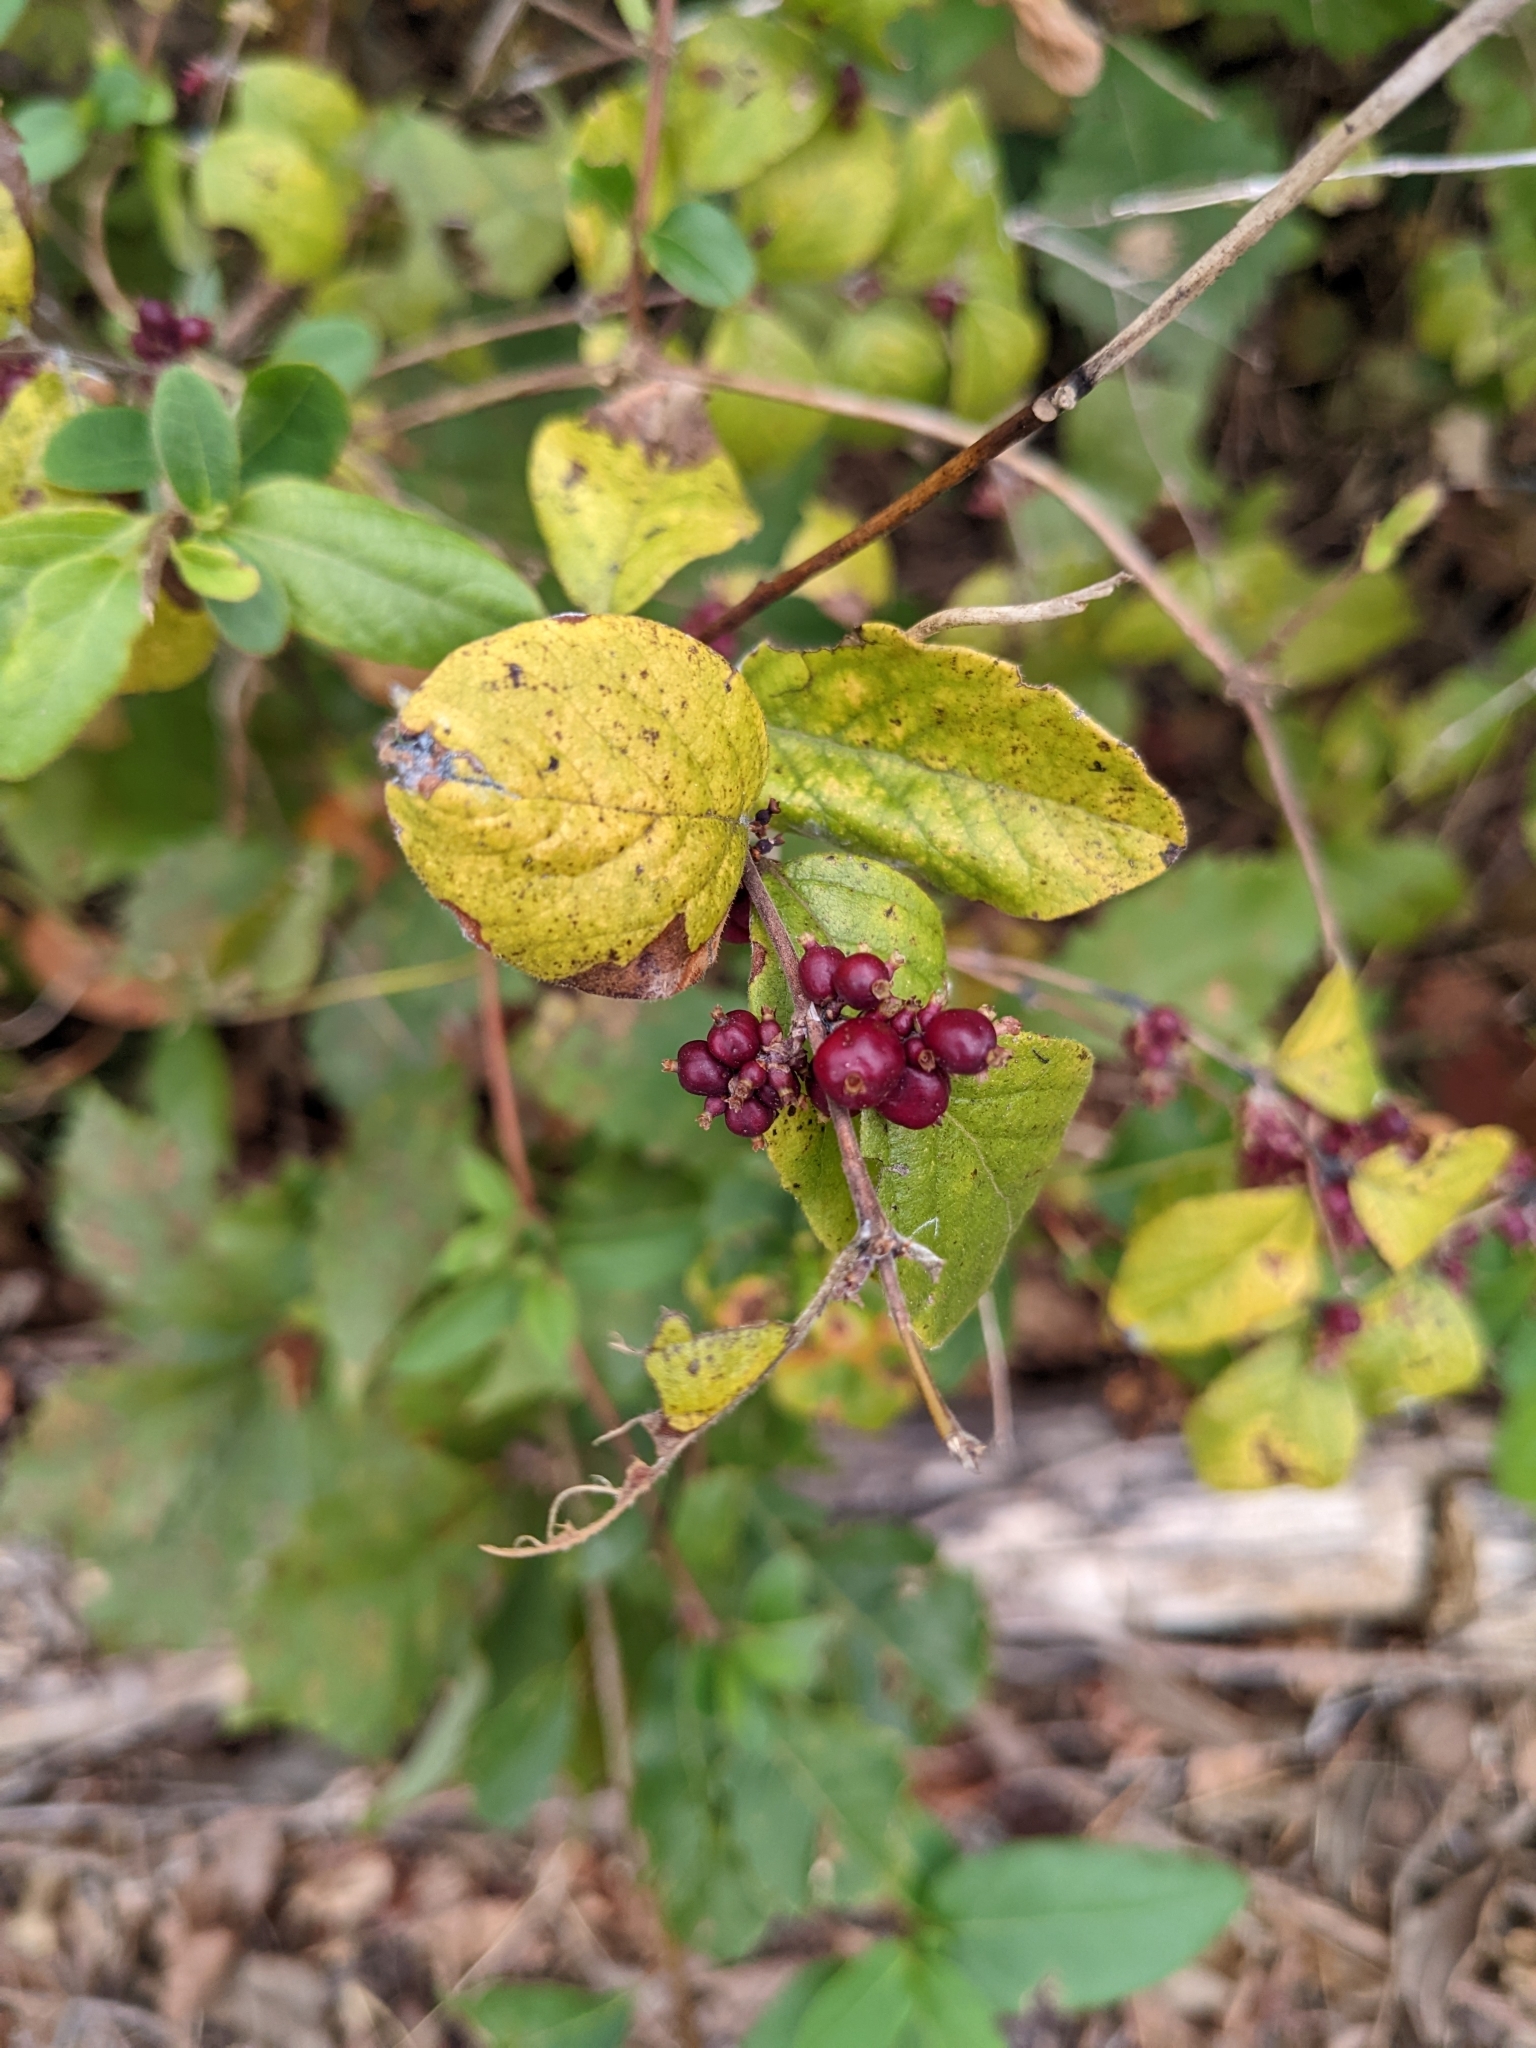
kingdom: Plantae
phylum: Tracheophyta
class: Magnoliopsida
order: Dipsacales
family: Caprifoliaceae
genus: Symphoricarpos
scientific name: Symphoricarpos orbiculatus
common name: Coralberry
